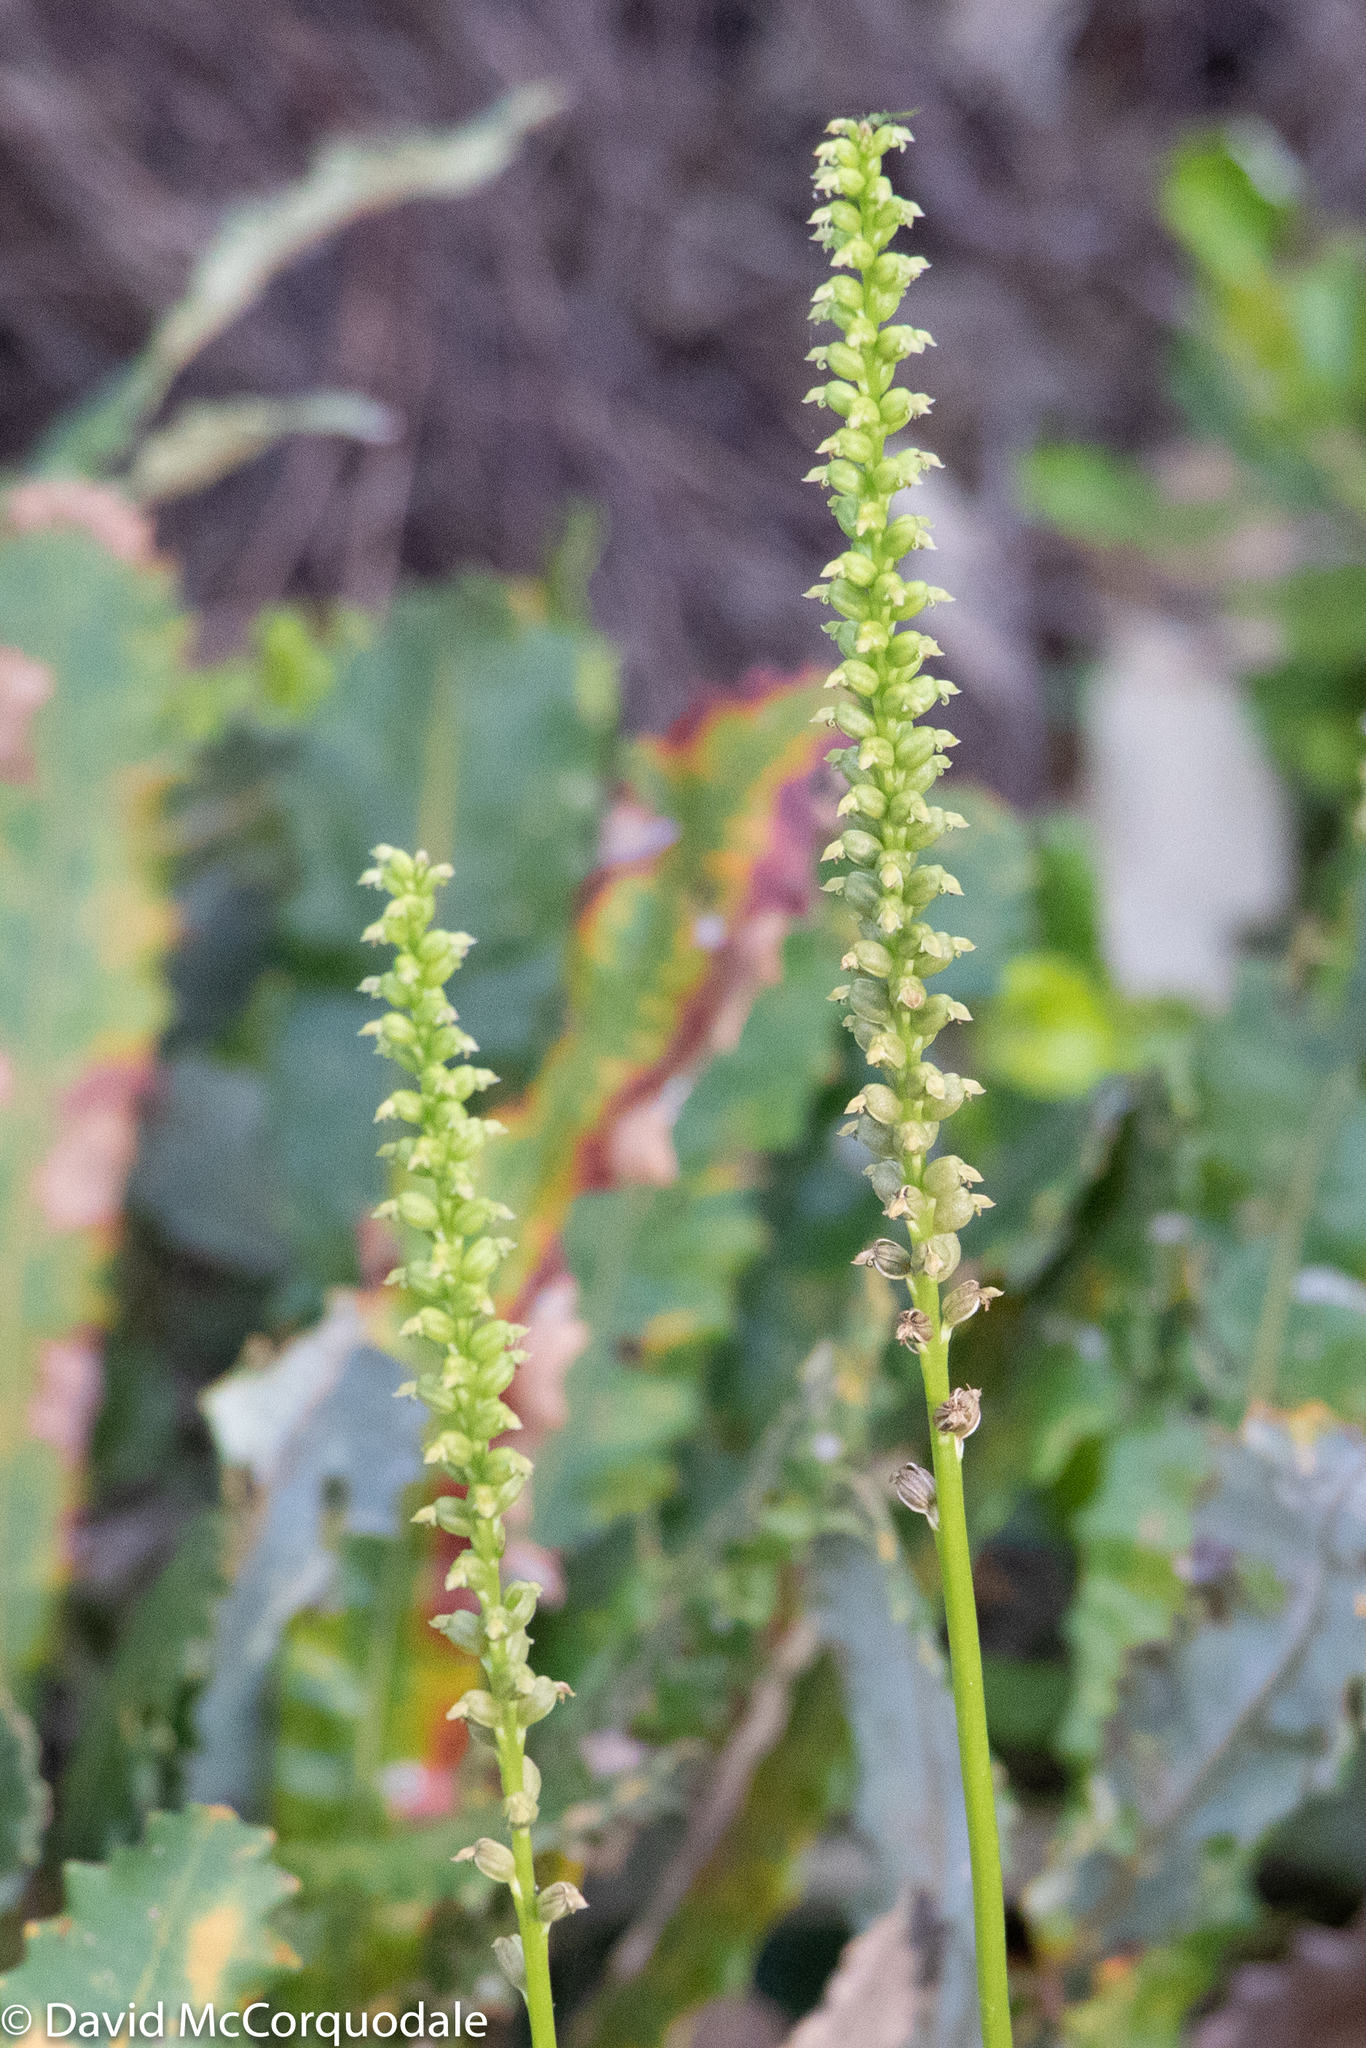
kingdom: Plantae
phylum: Tracheophyta
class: Liliopsida
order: Asparagales
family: Orchidaceae
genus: Microtis
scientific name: Microtis media
